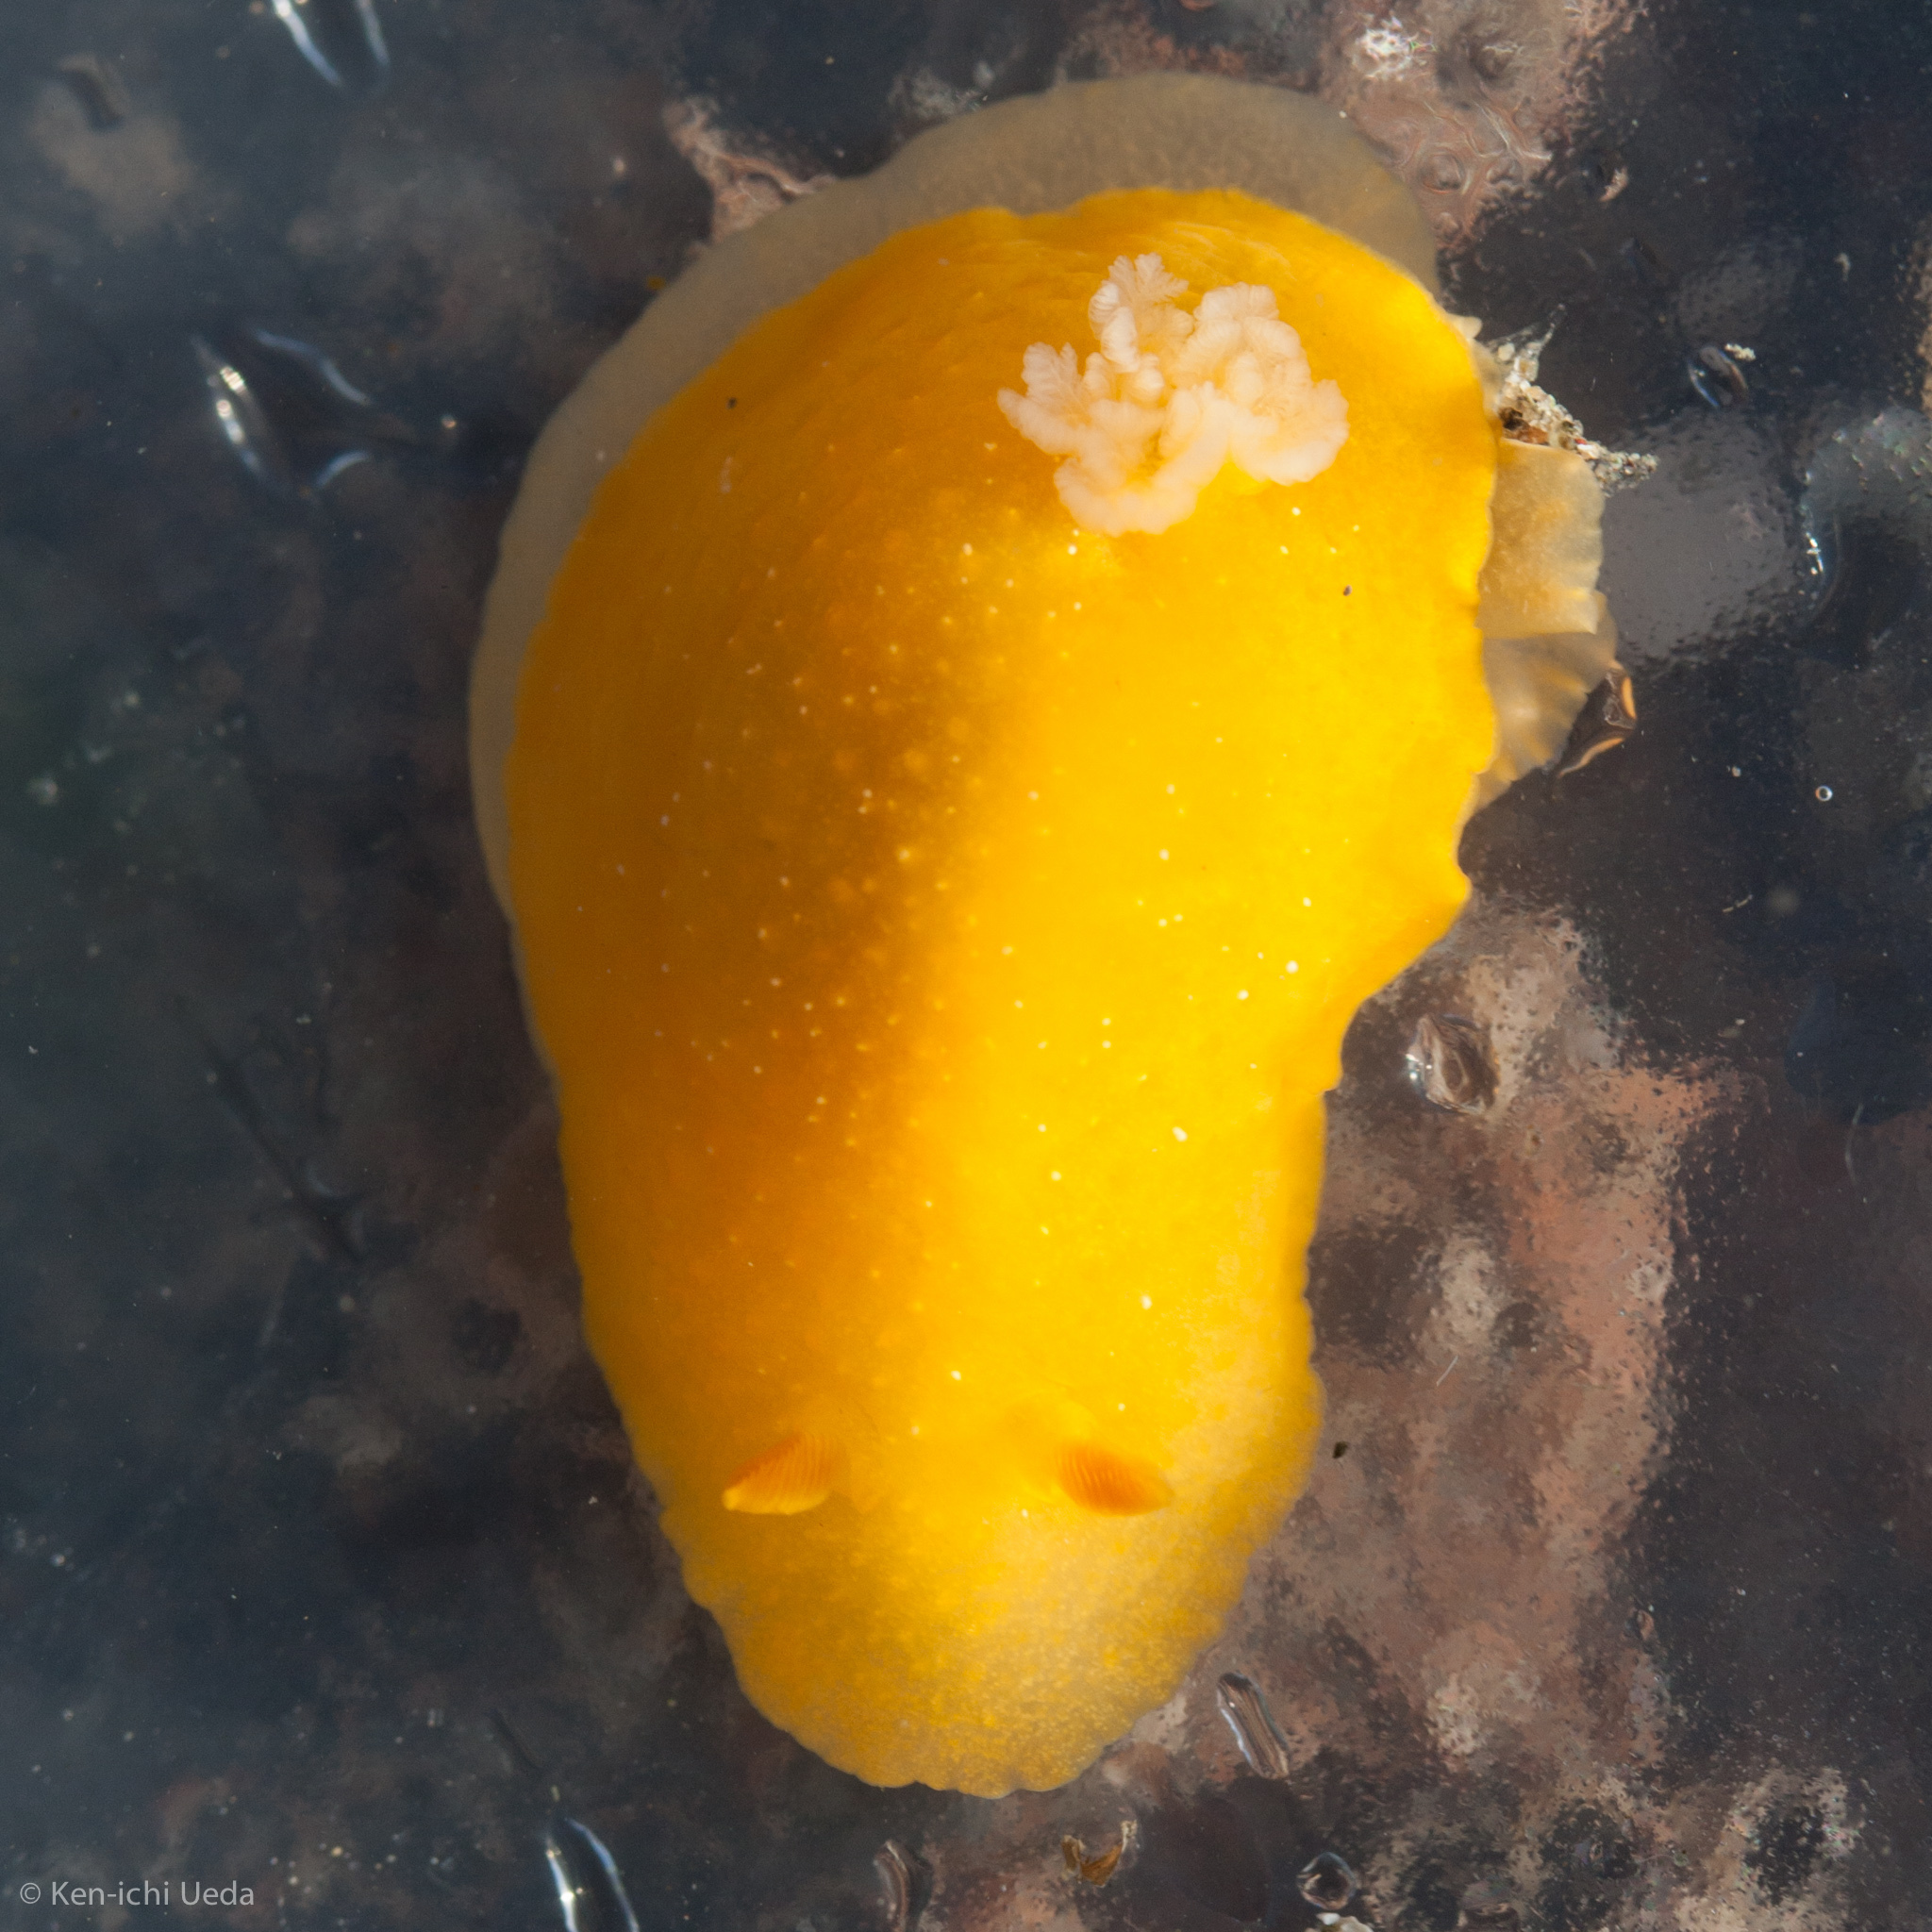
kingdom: Animalia
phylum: Mollusca
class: Gastropoda
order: Nudibranchia
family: Dendrodorididae
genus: Doriopsilla
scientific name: Doriopsilla
